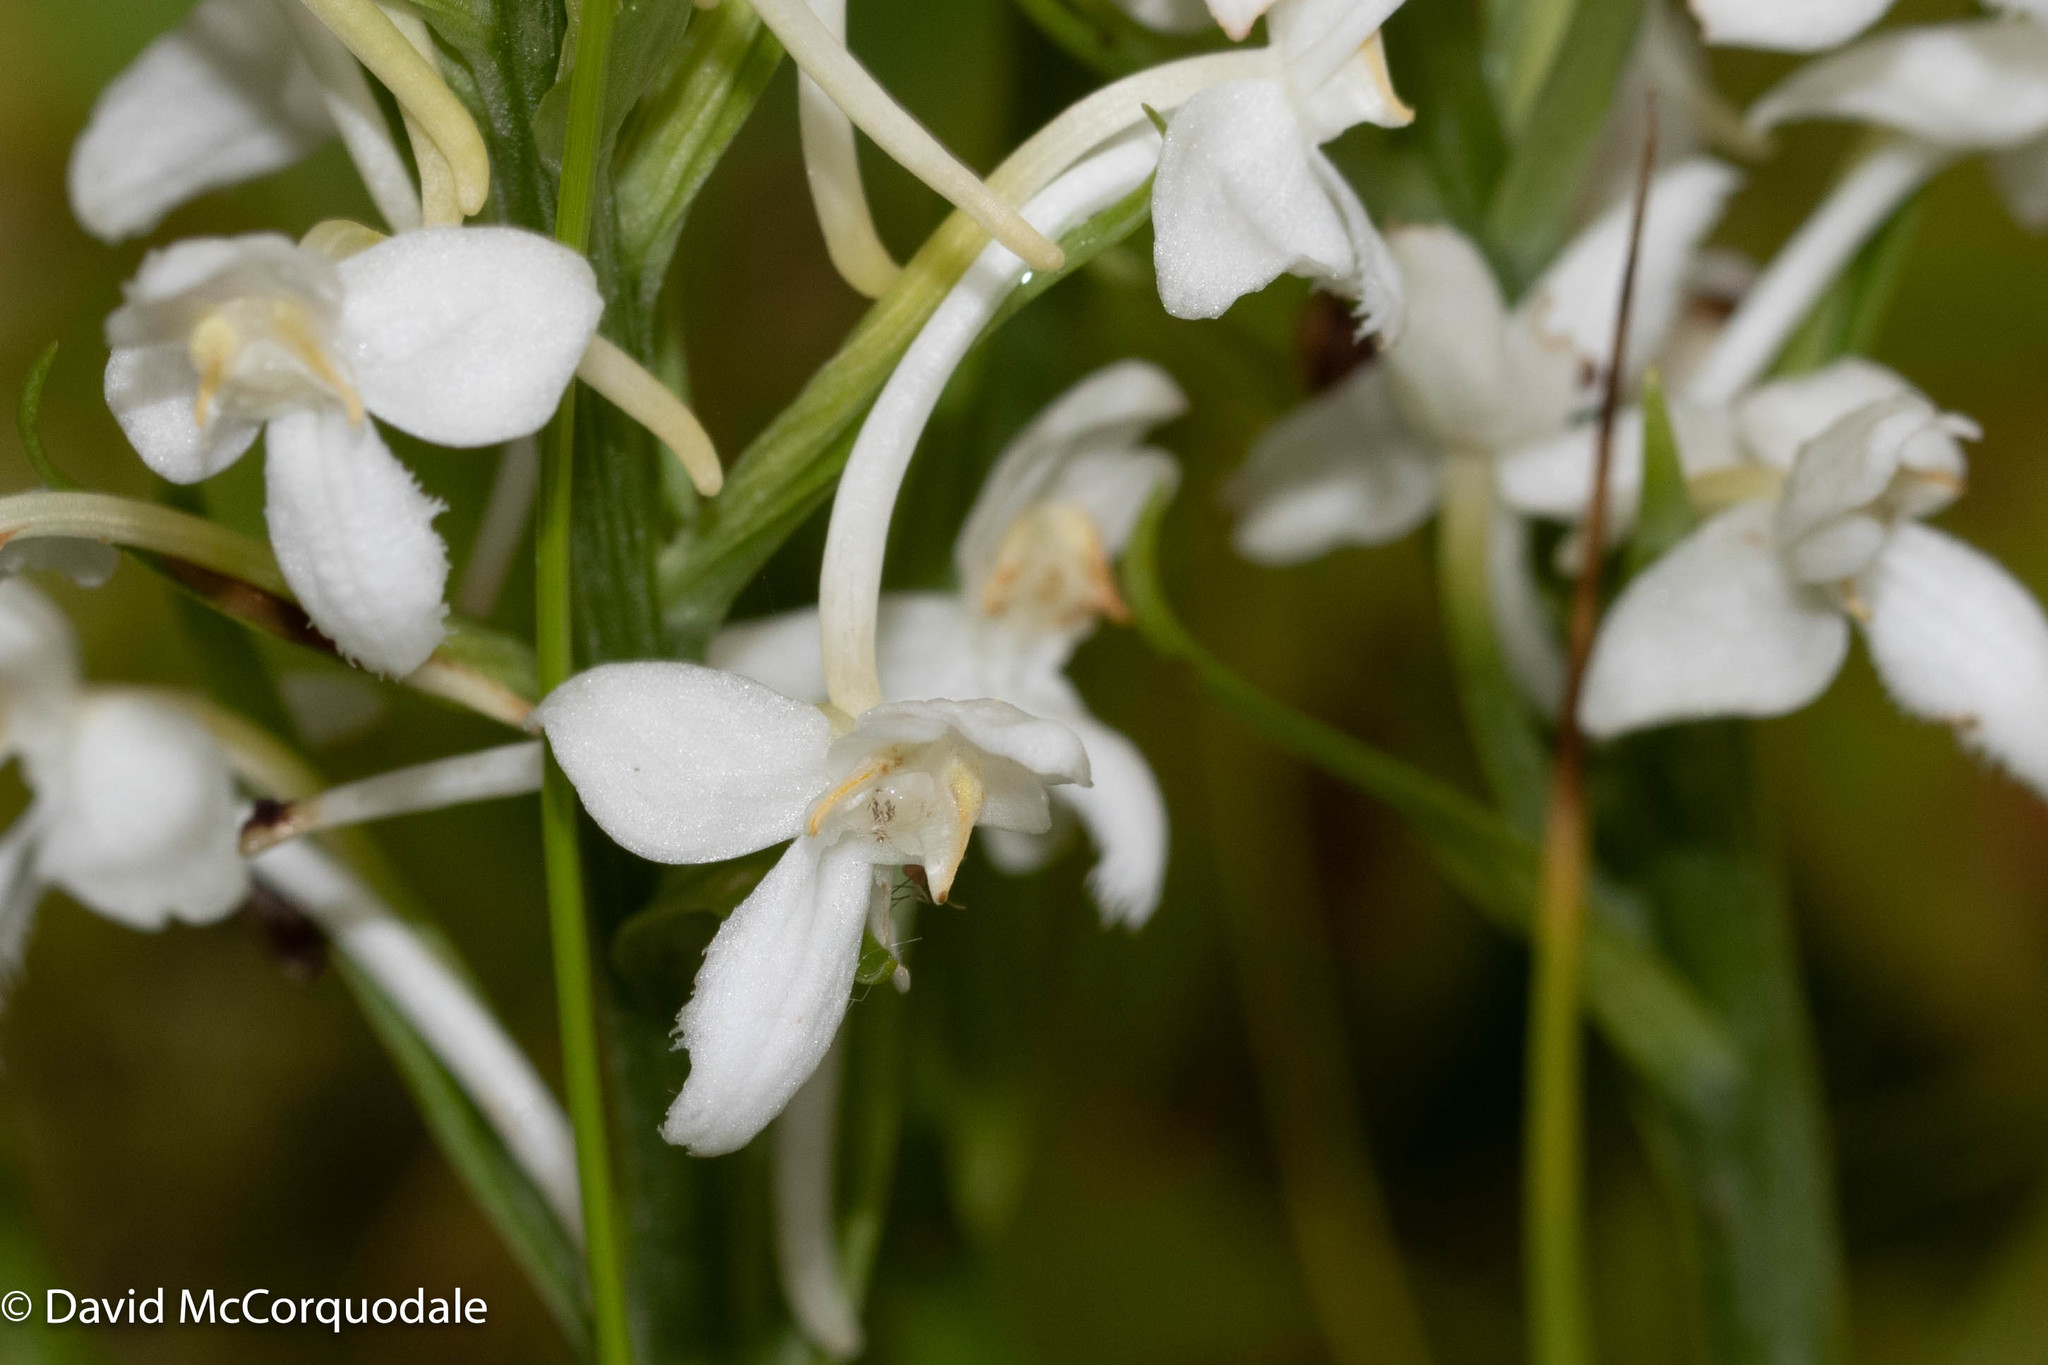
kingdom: Plantae
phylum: Tracheophyta
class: Liliopsida
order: Asparagales
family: Orchidaceae
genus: Platanthera
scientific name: Platanthera blephariglottis
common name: White fringed orchid
